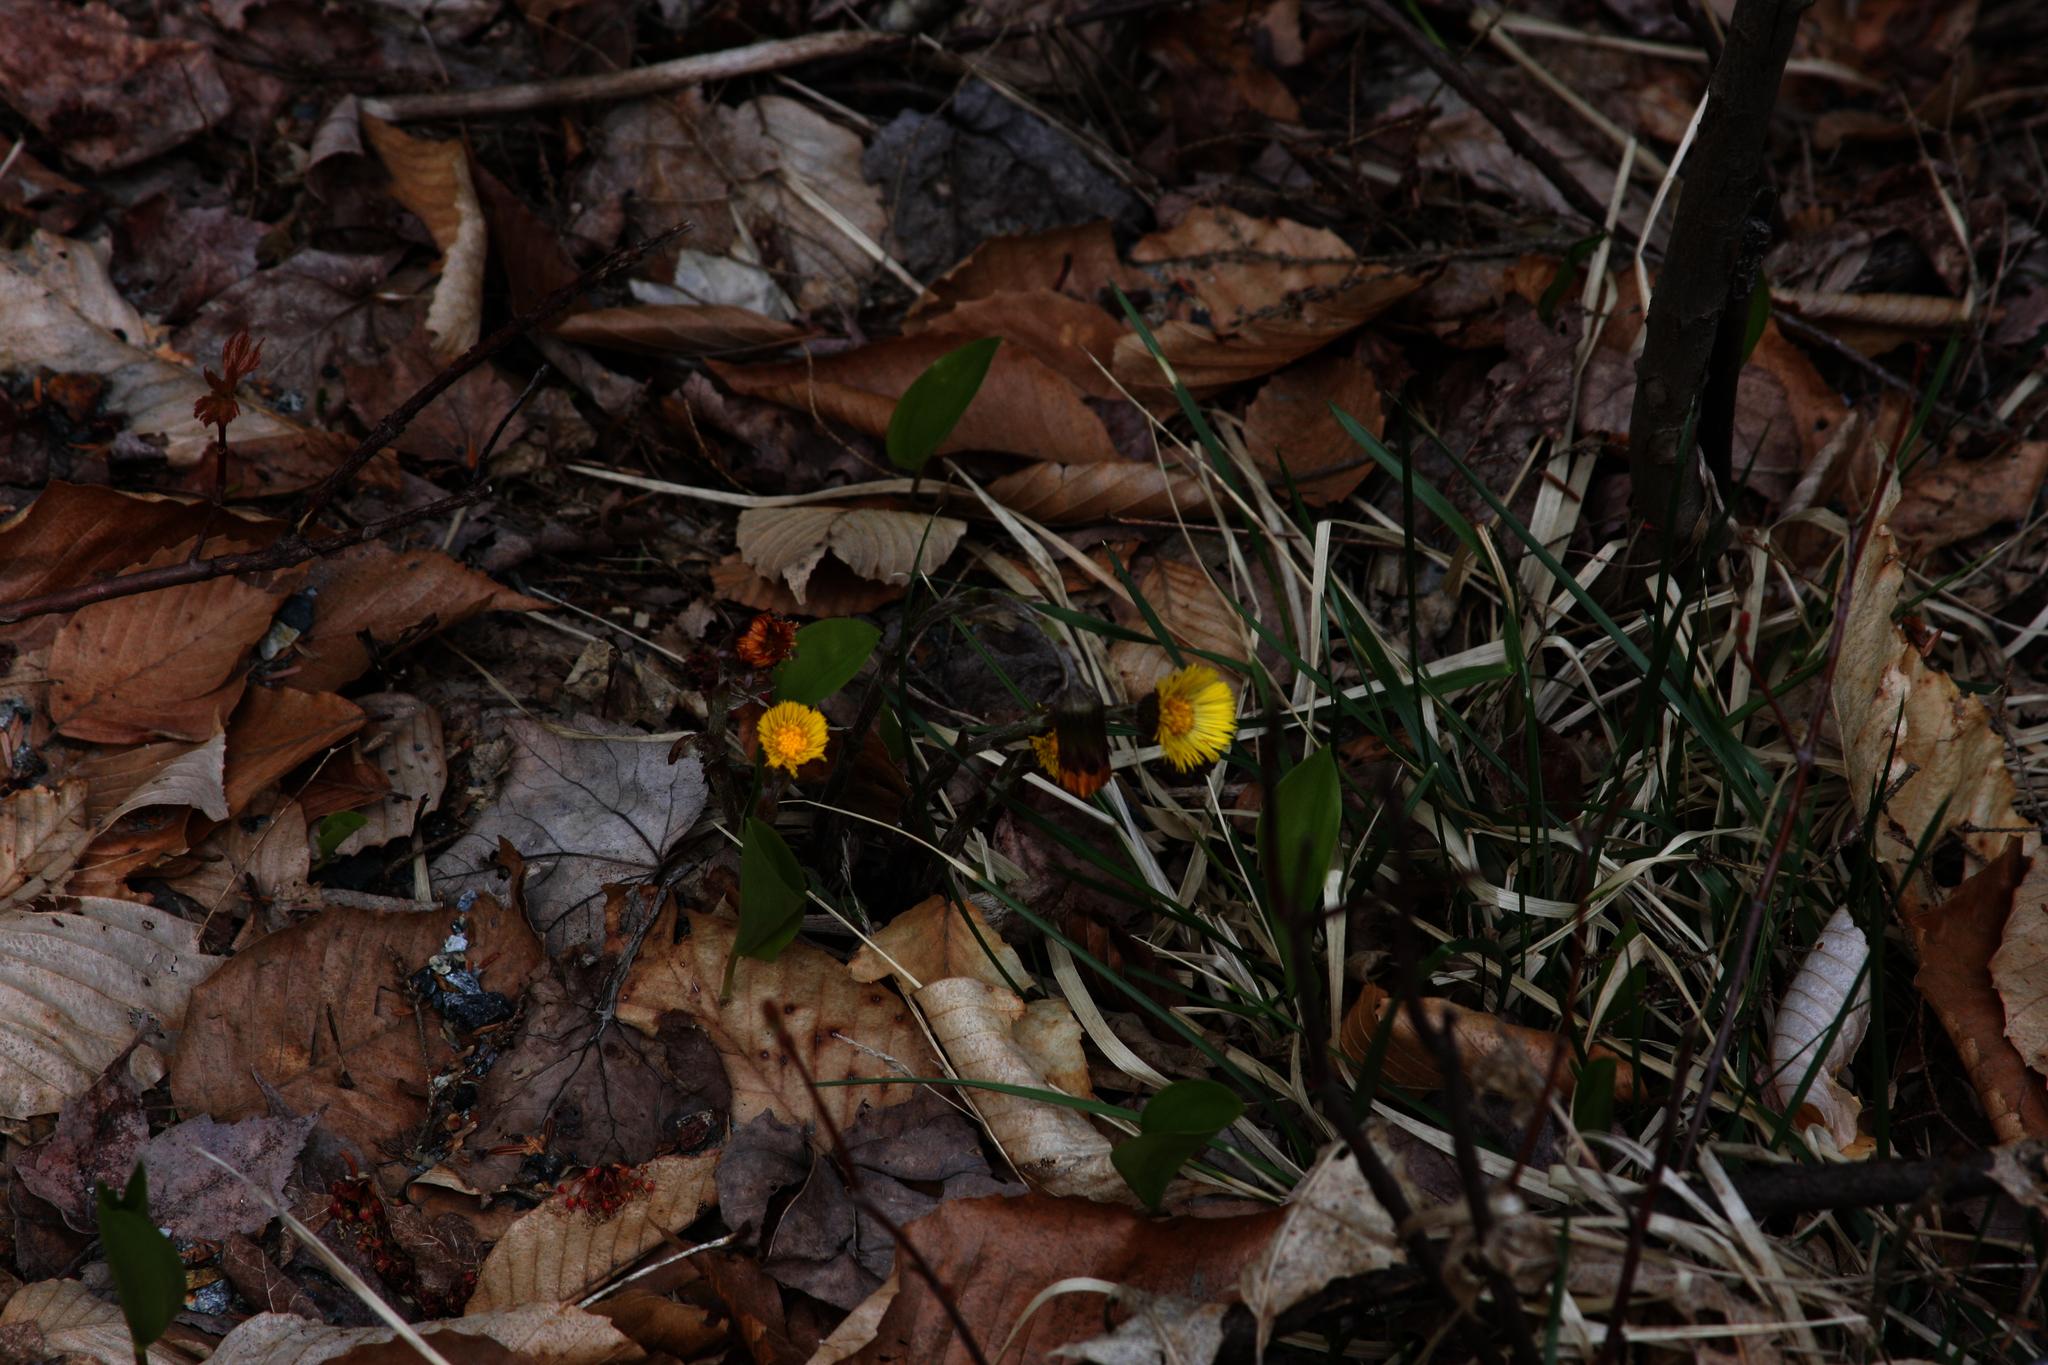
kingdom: Plantae
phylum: Tracheophyta
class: Magnoliopsida
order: Asterales
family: Asteraceae
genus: Tussilago
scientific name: Tussilago farfara
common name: Coltsfoot
